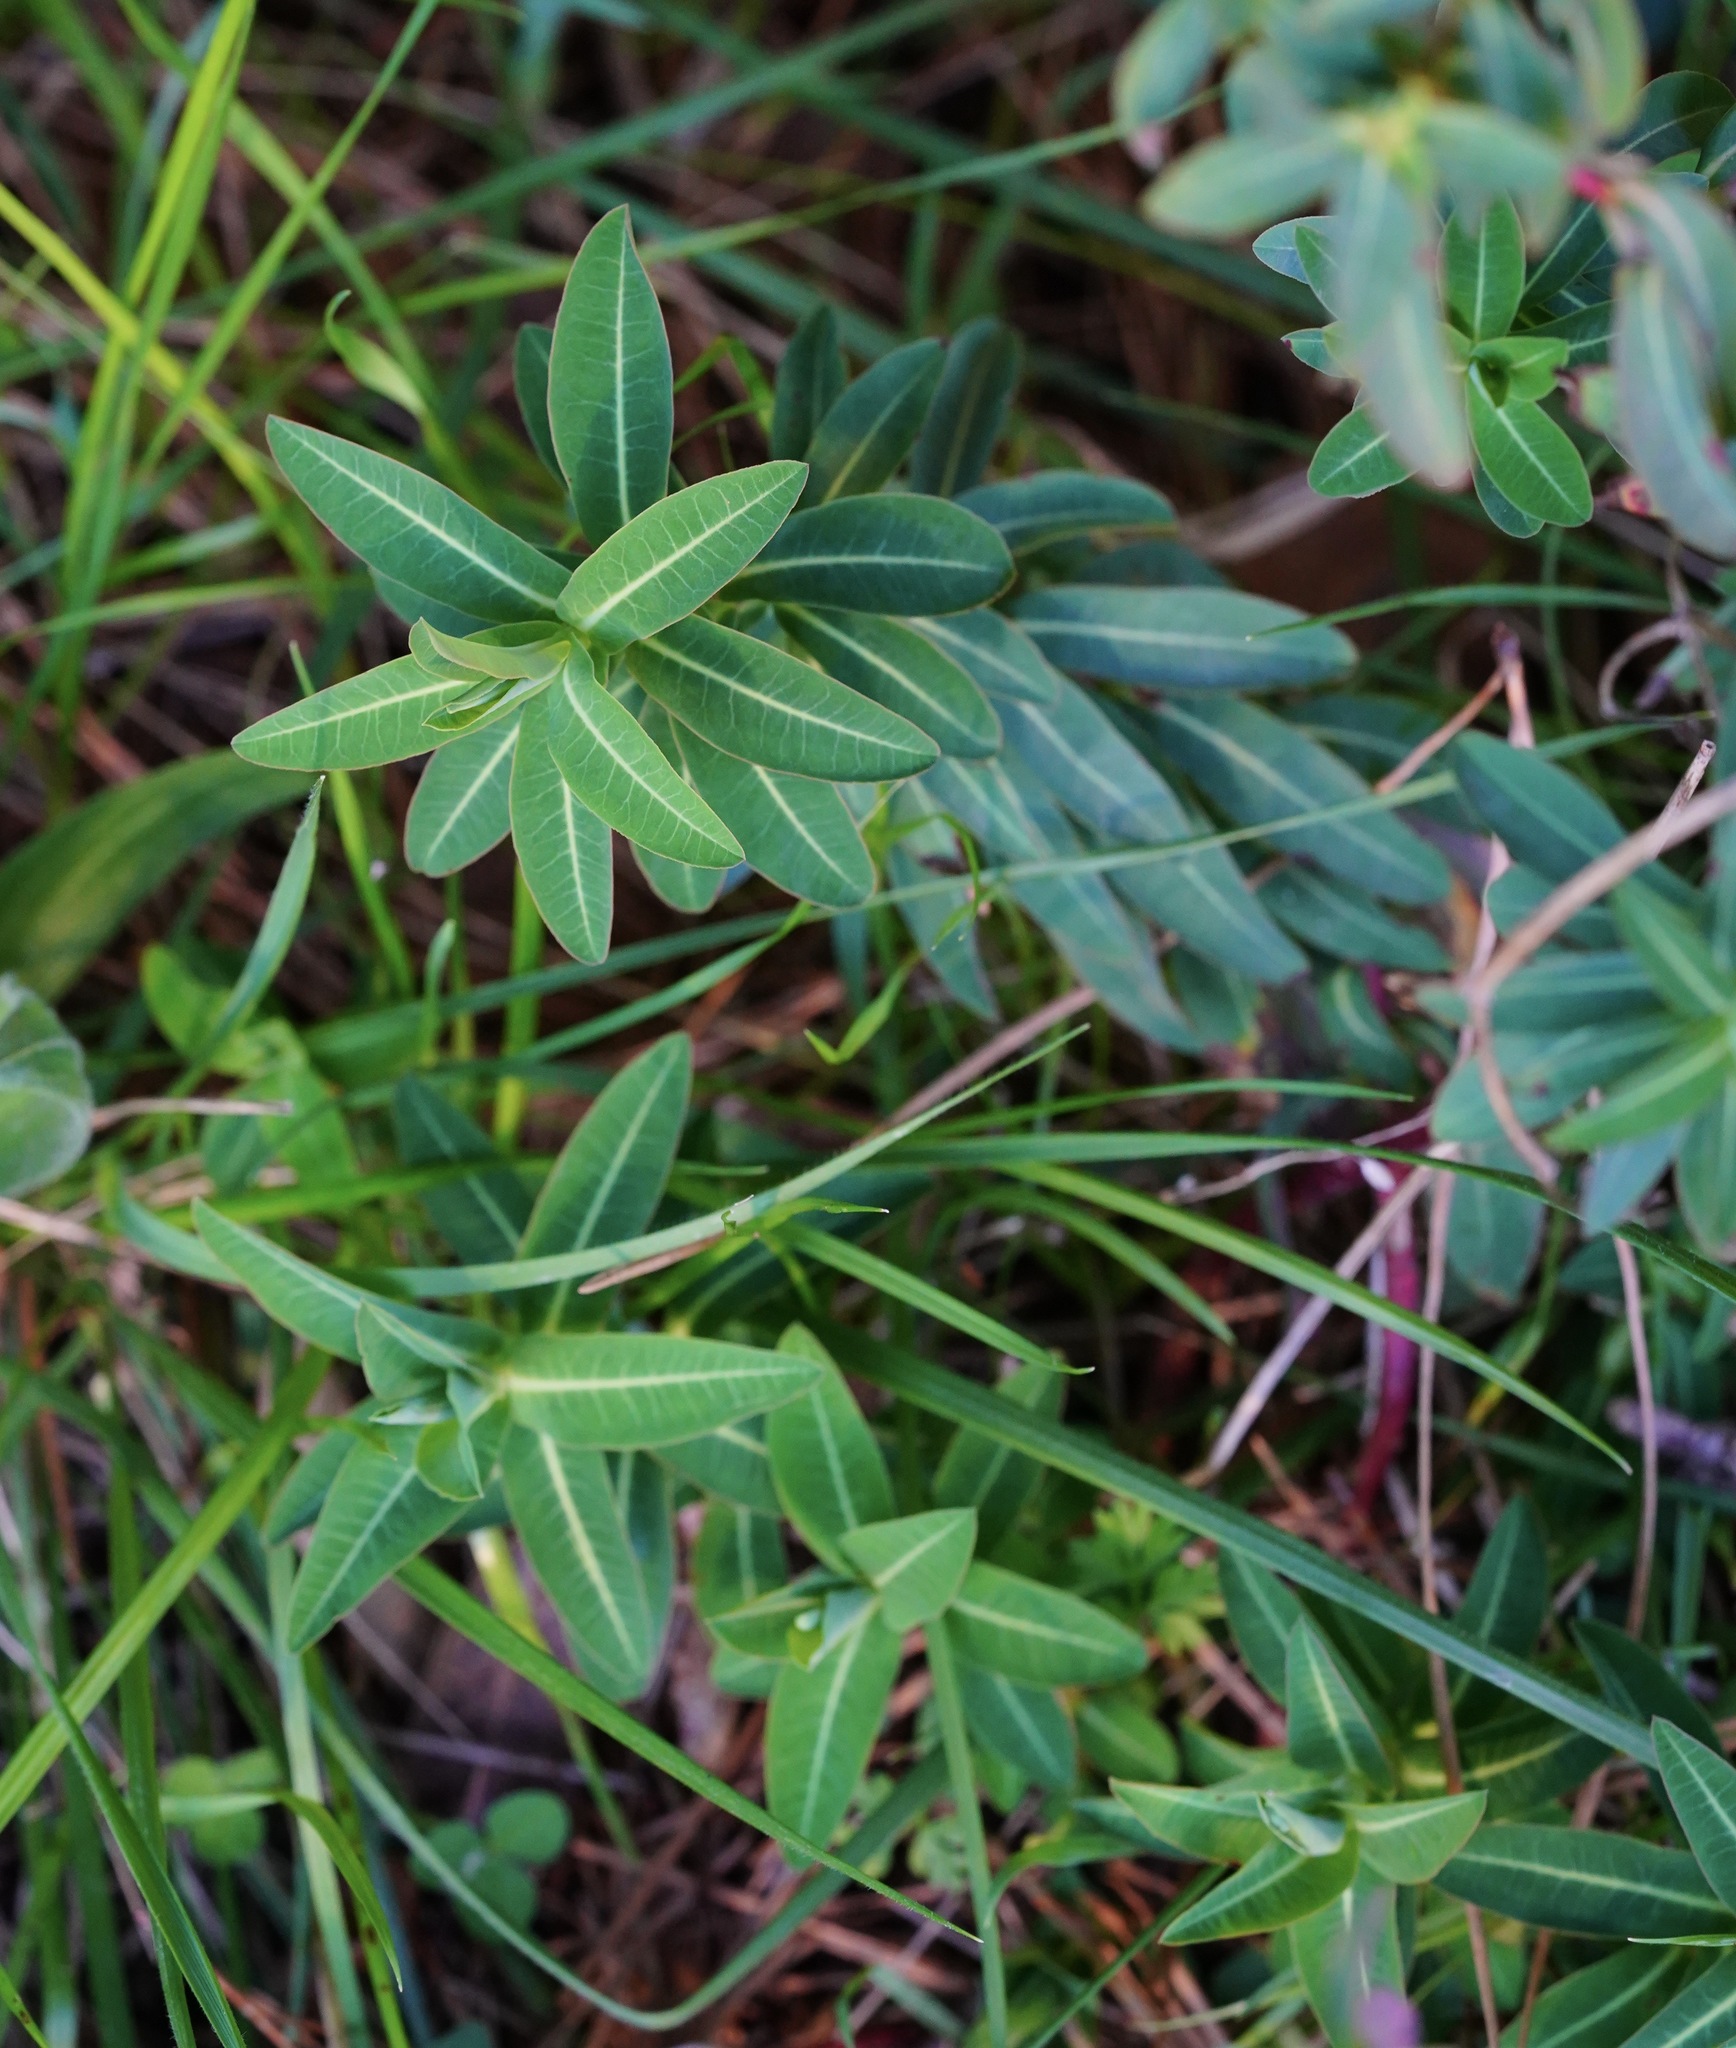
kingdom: Plantae
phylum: Tracheophyta
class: Magnoliopsida
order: Malpighiales
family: Euphorbiaceae
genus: Euphorbia
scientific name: Euphorbia oblongata
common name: Balkan spurge
